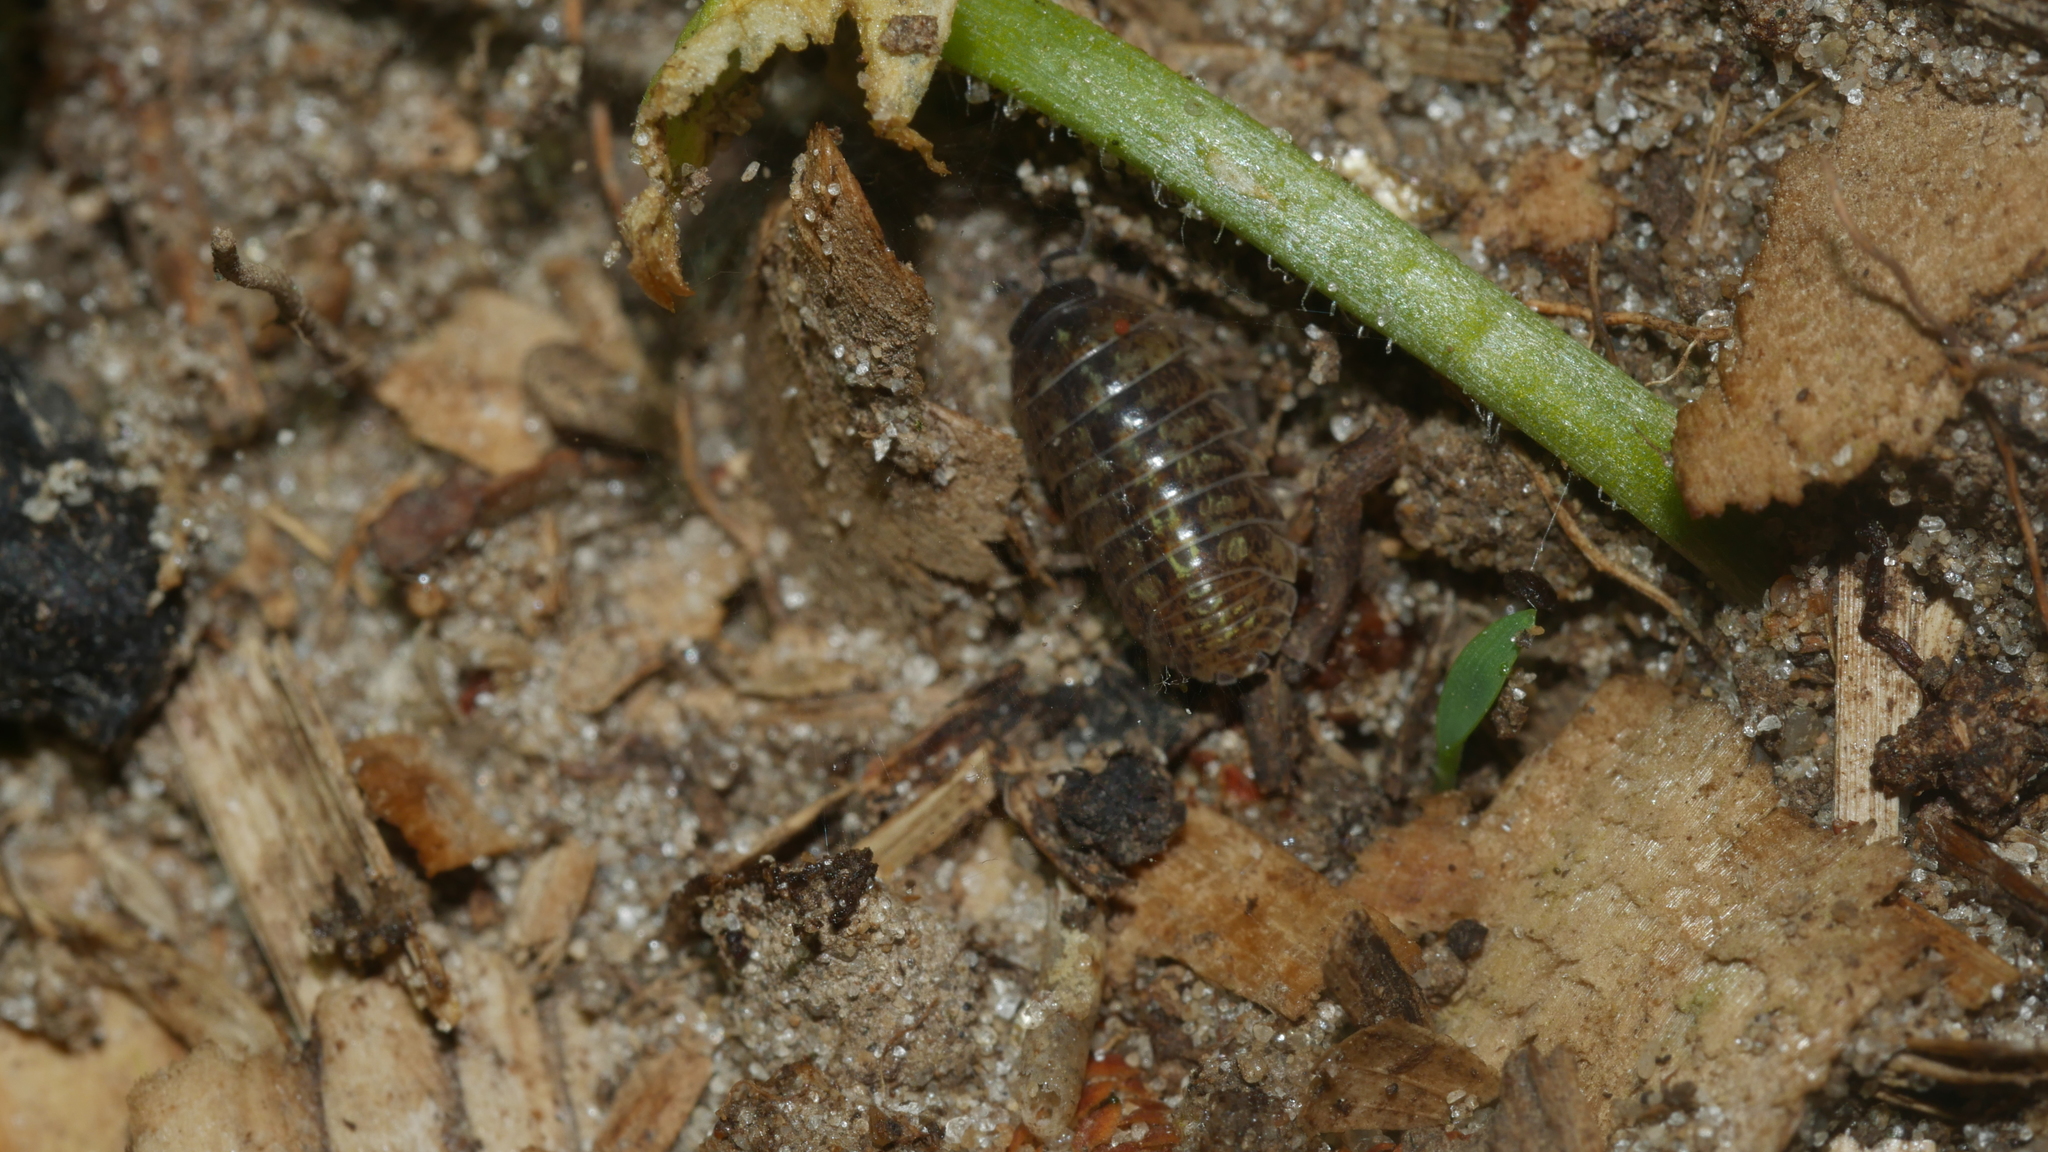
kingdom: Animalia
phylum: Arthropoda
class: Malacostraca
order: Isopoda
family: Armadillidiidae
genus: Armadillidium
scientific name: Armadillidium vulgare
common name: Common pill woodlouse
